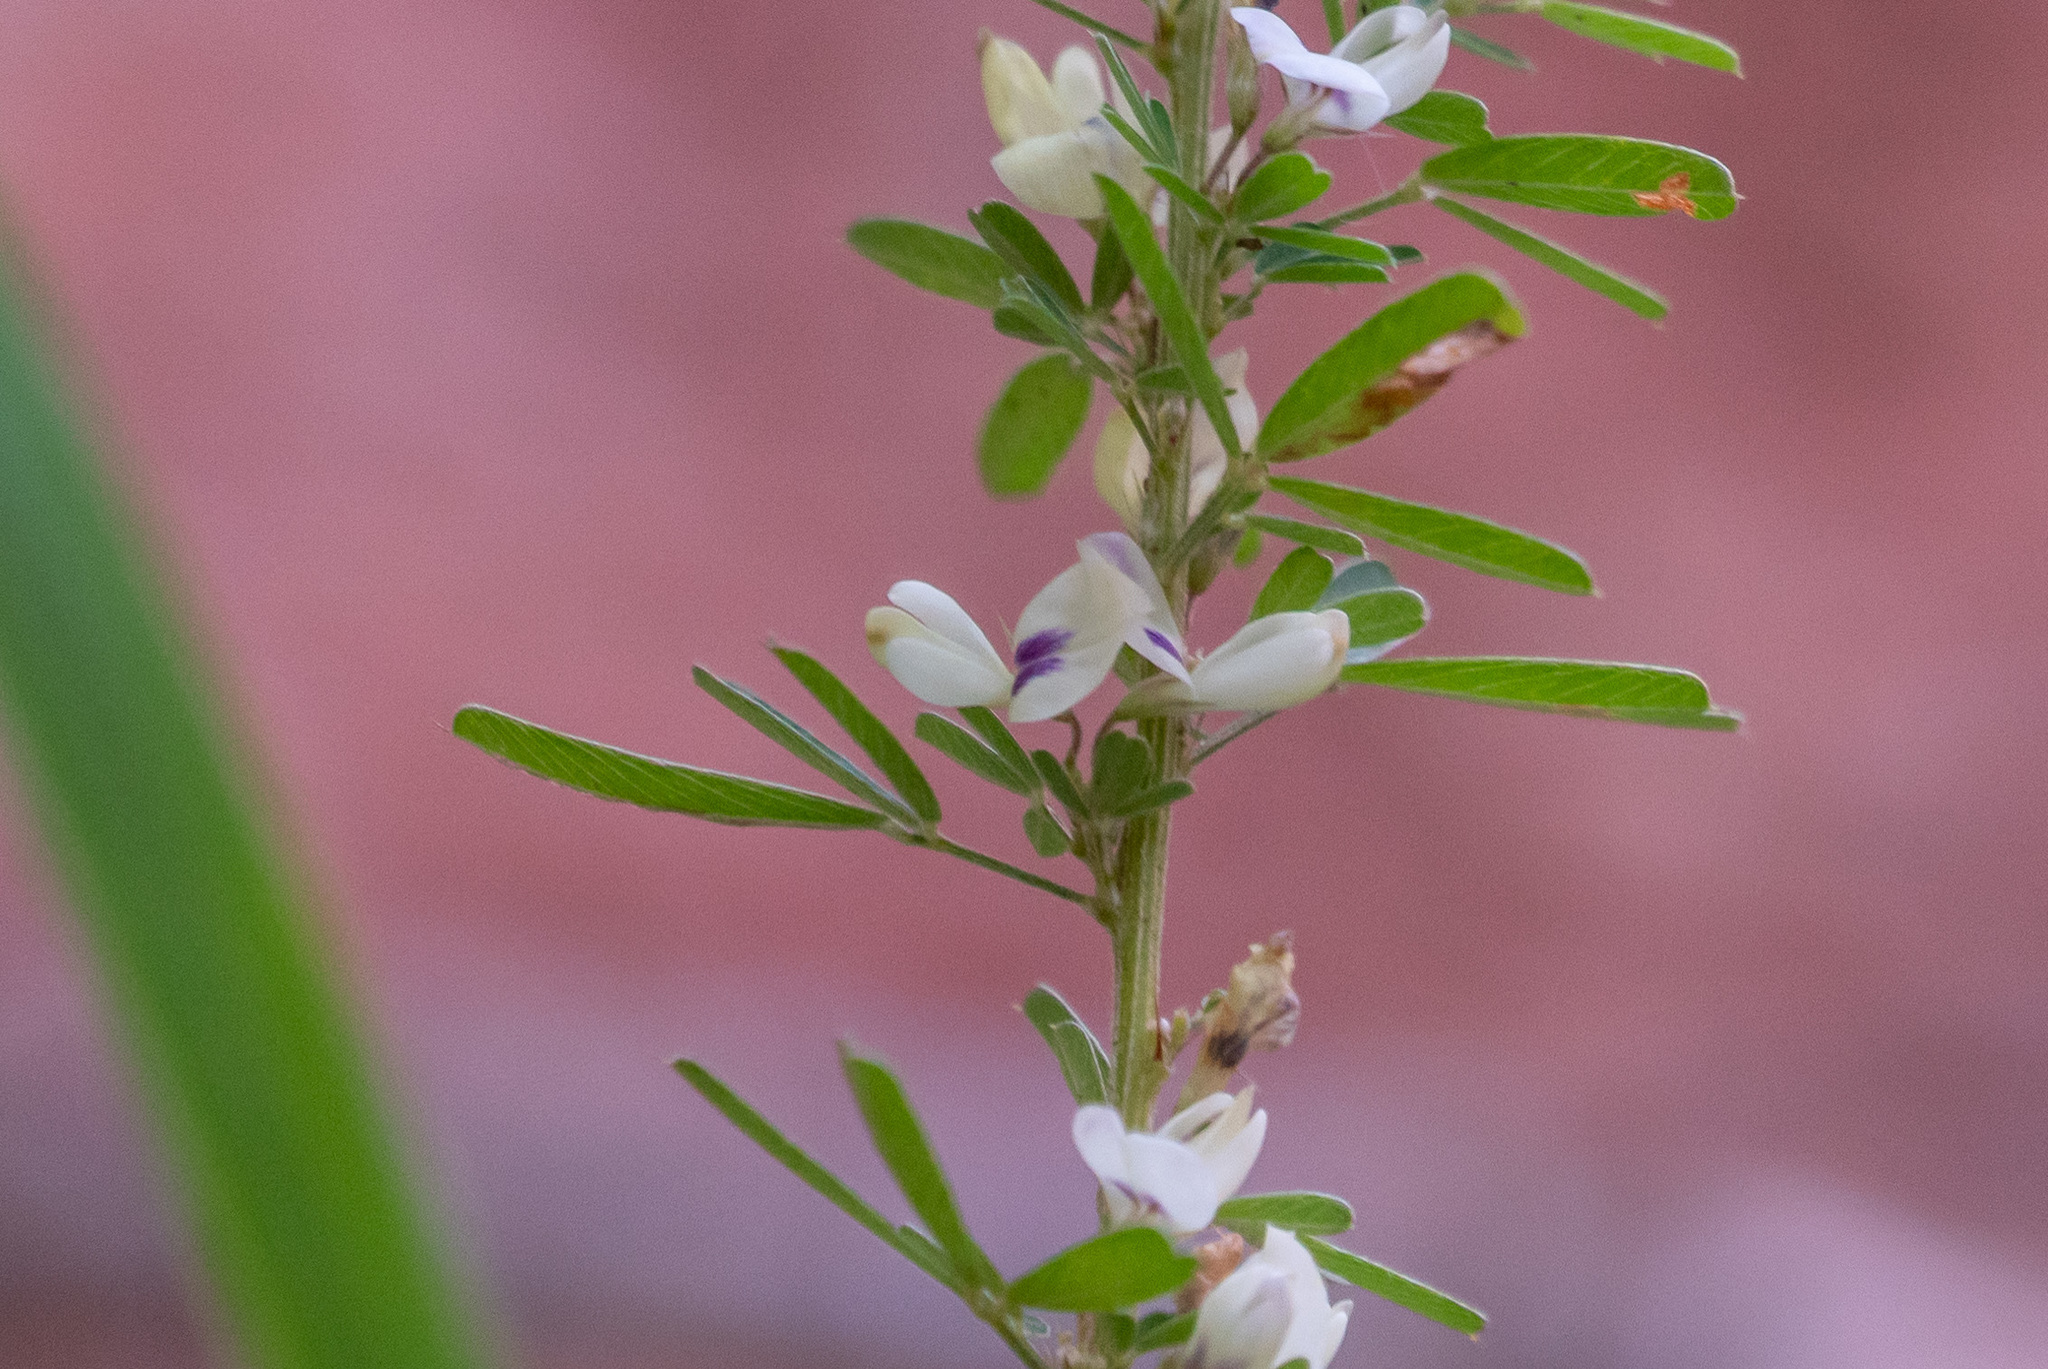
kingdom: Plantae
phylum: Tracheophyta
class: Magnoliopsida
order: Fabales
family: Fabaceae
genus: Lespedeza
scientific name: Lespedeza cuneata
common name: Chinese bush-clover
